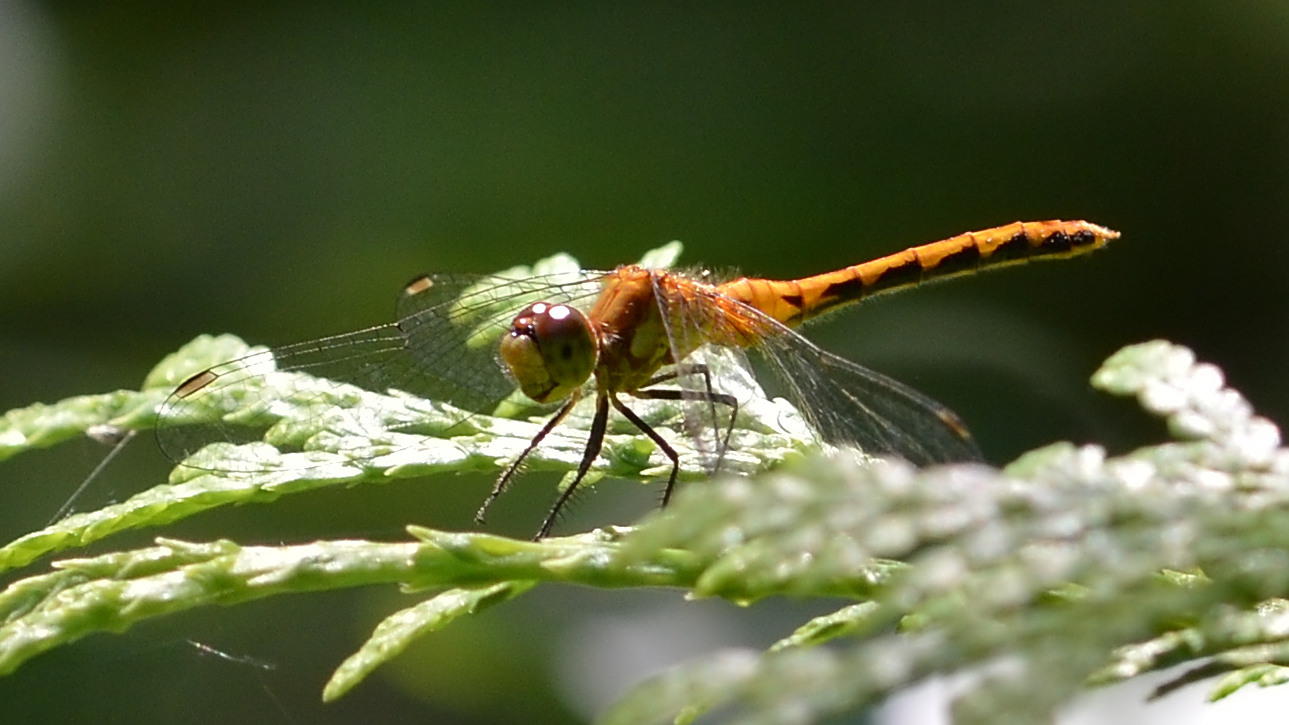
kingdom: Animalia
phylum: Arthropoda
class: Insecta
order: Odonata
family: Libellulidae
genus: Sympetrum
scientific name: Sympetrum
